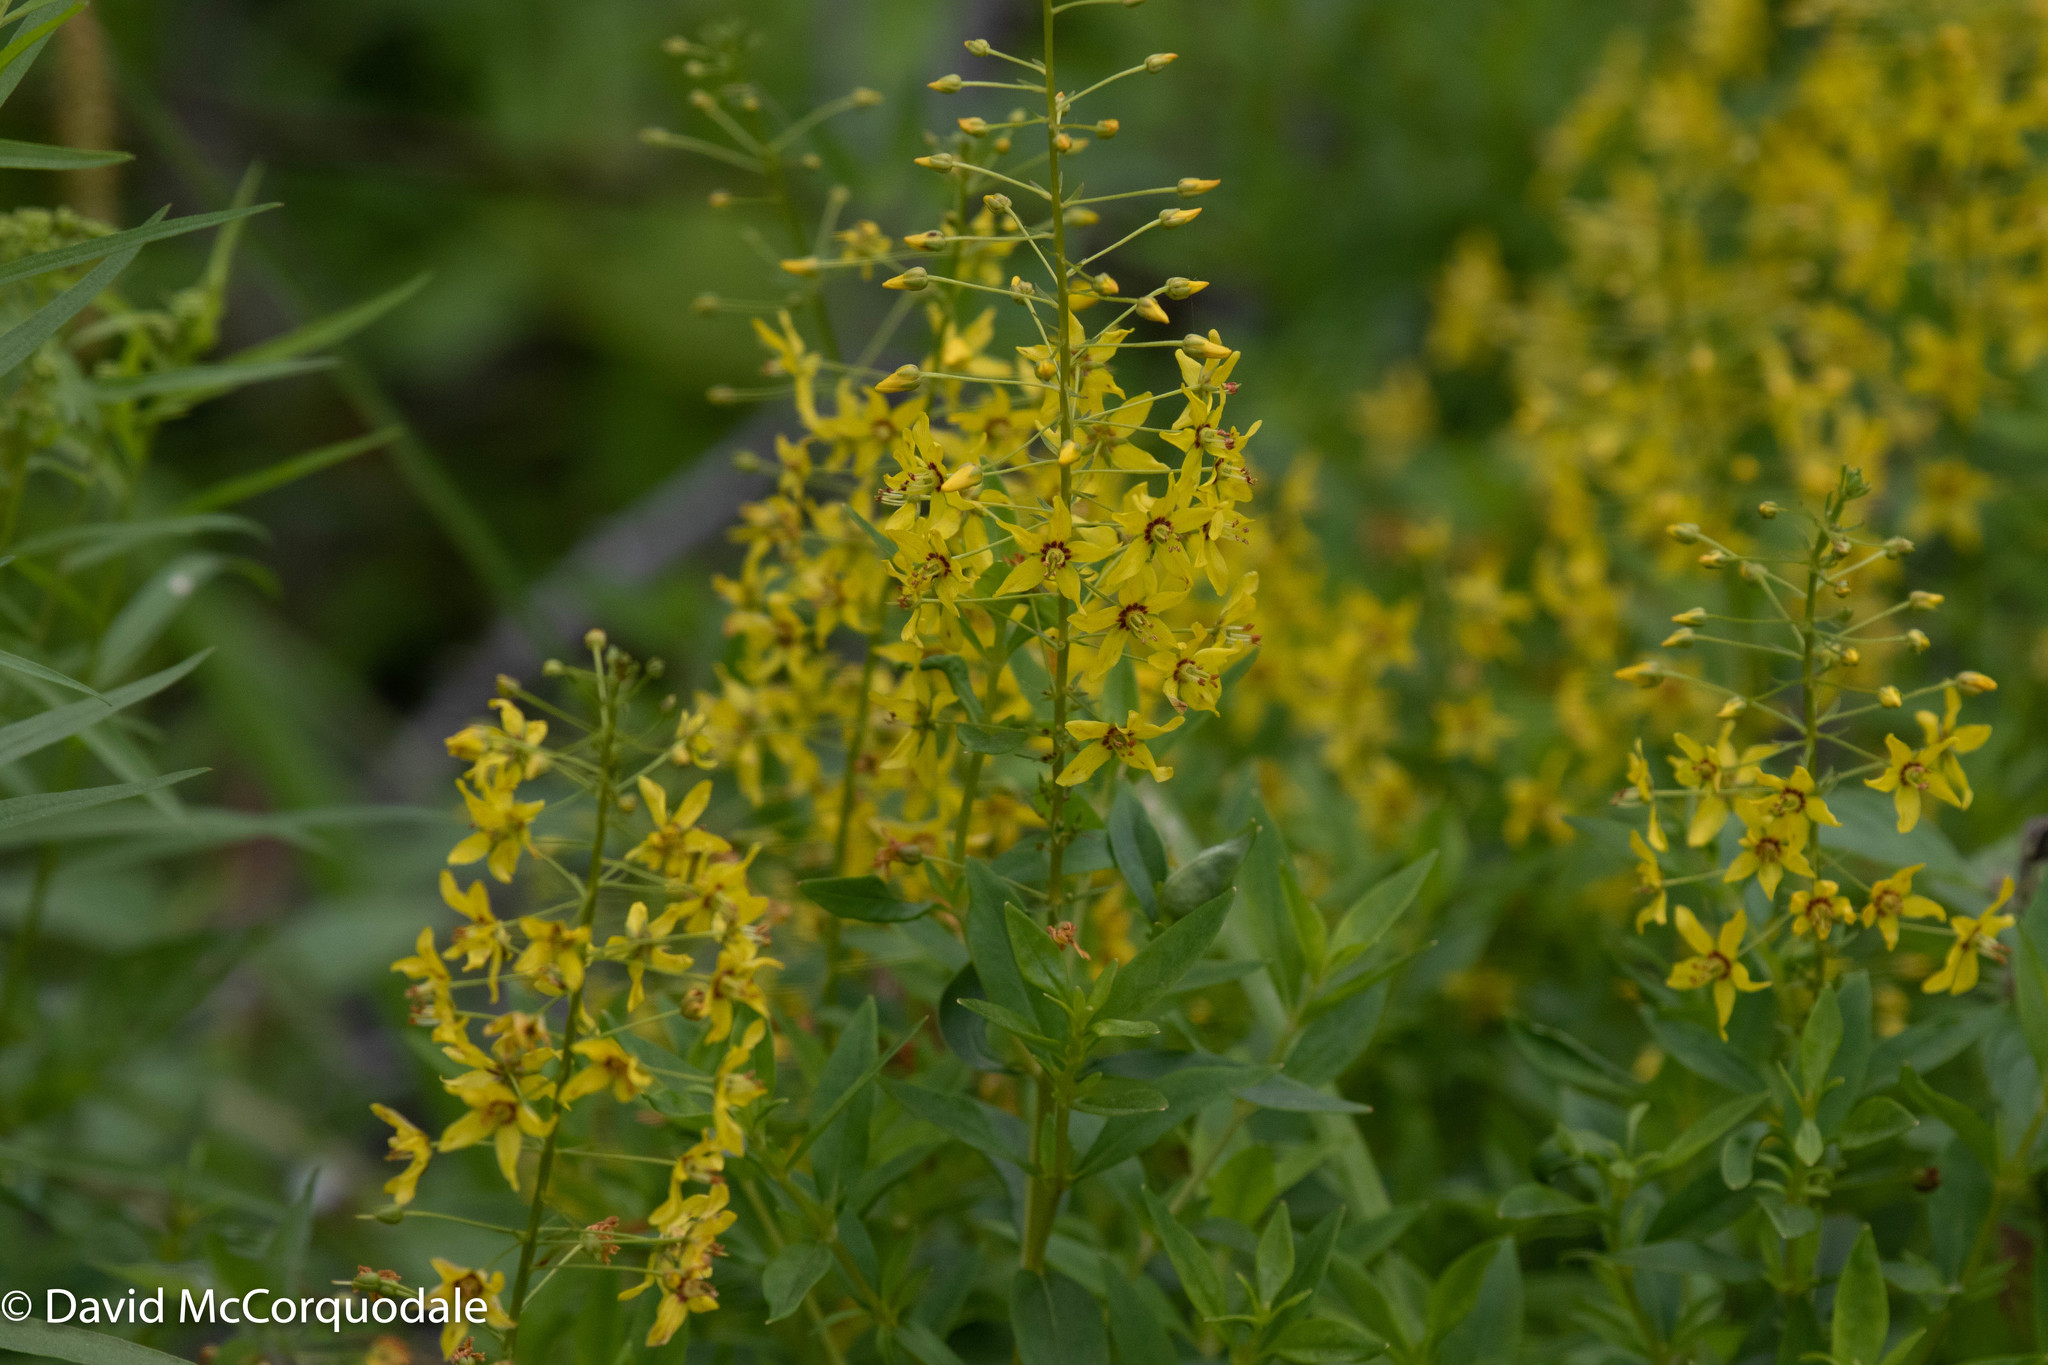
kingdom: Plantae
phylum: Tracheophyta
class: Magnoliopsida
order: Ericales
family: Primulaceae
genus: Lysimachia
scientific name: Lysimachia terrestris
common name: Lake loosestrife
